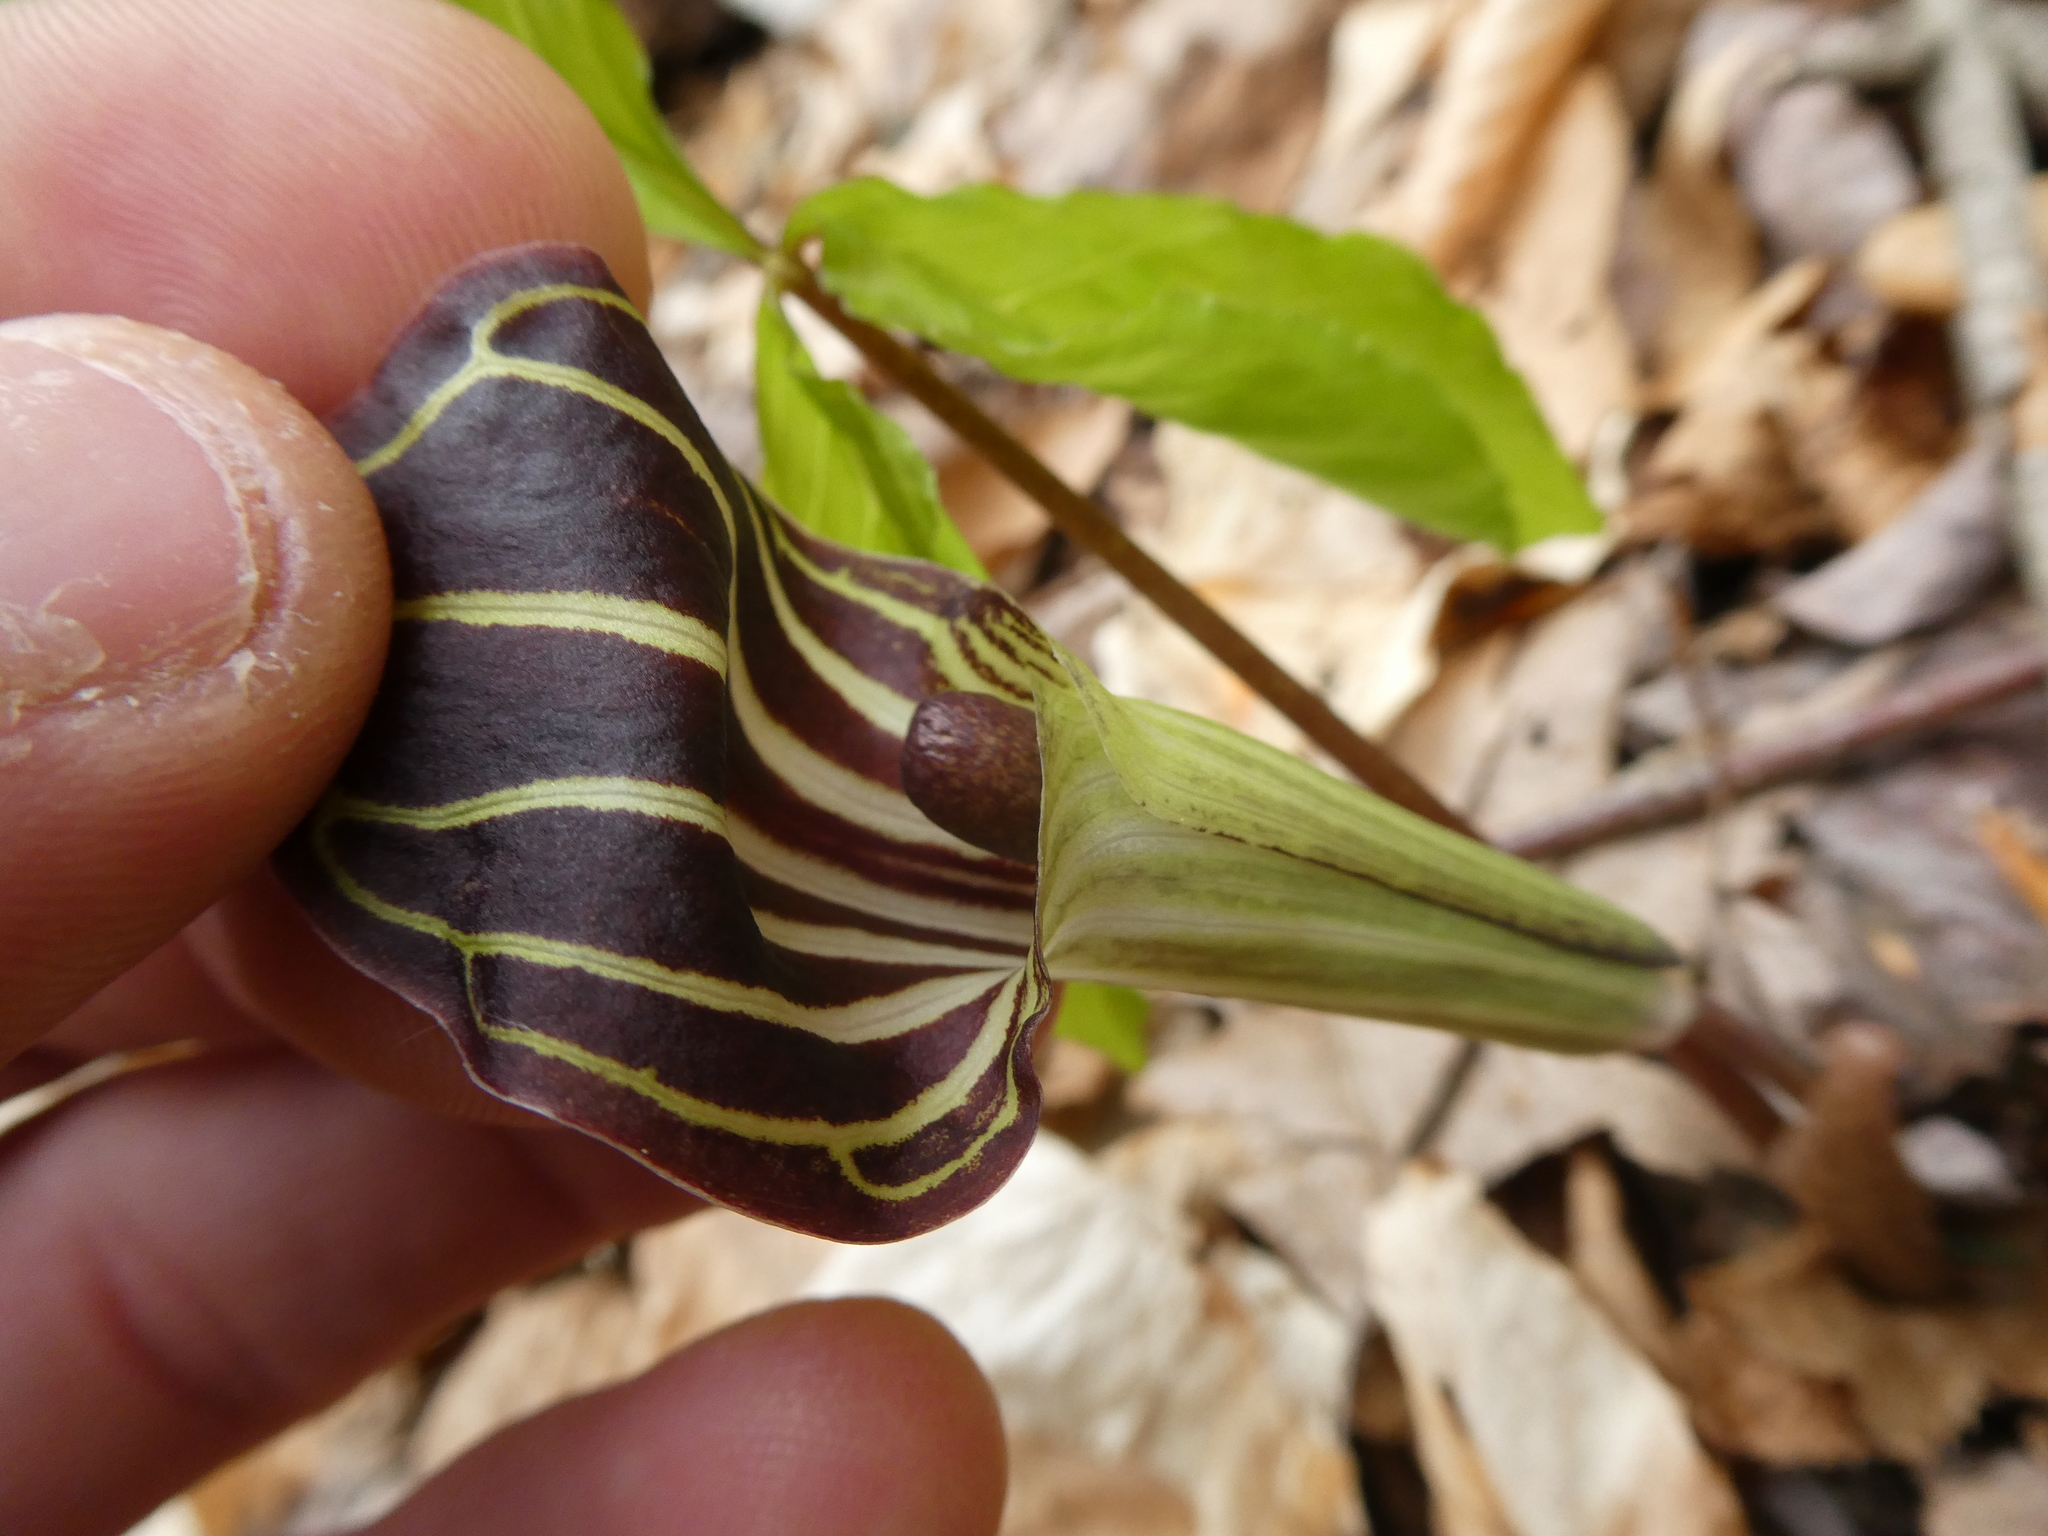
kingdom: Plantae
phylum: Tracheophyta
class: Liliopsida
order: Alismatales
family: Araceae
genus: Arisaema
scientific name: Arisaema triphyllum
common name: Jack-in-the-pulpit
